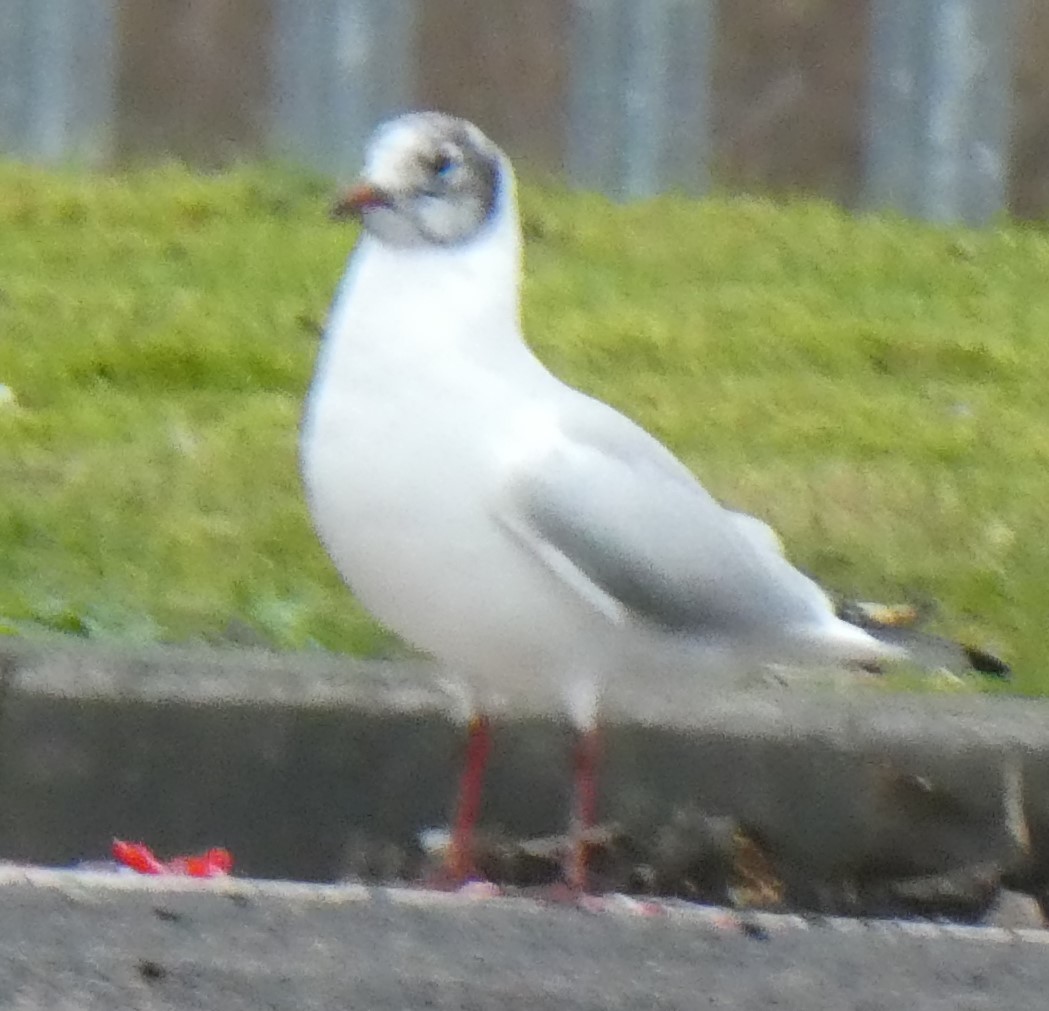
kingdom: Animalia
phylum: Chordata
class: Aves
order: Charadriiformes
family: Laridae
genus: Chroicocephalus
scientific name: Chroicocephalus ridibundus
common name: Black-headed gull
